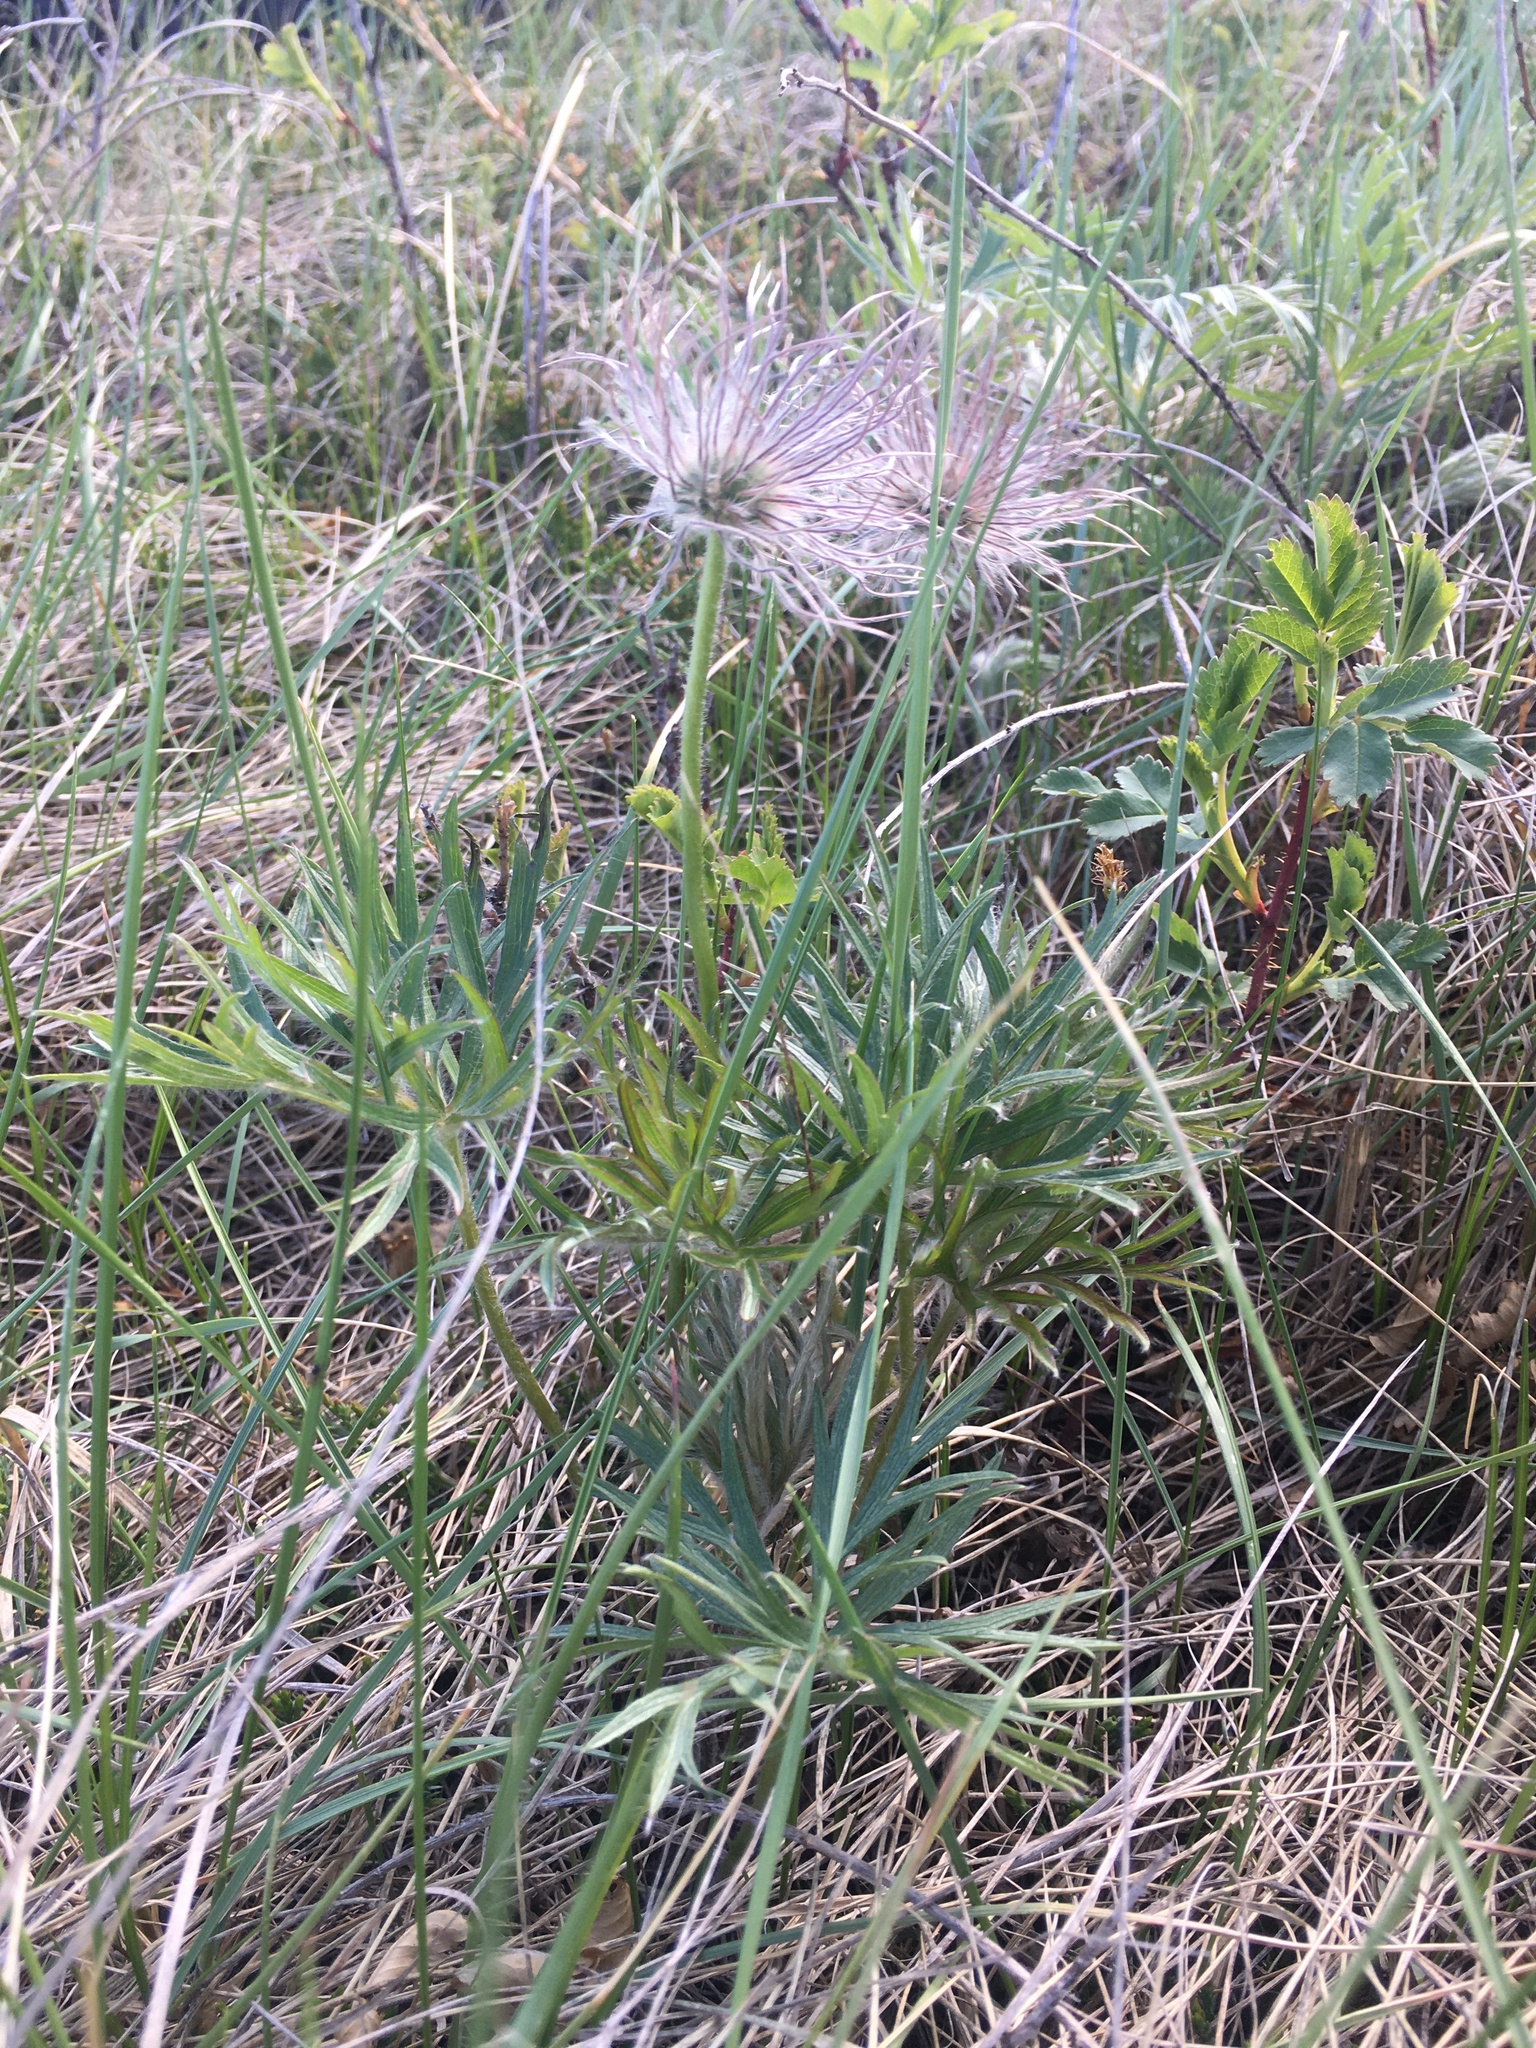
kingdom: Plantae
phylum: Tracheophyta
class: Magnoliopsida
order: Ranunculales
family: Ranunculaceae
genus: Pulsatilla
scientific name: Pulsatilla nuttalliana
